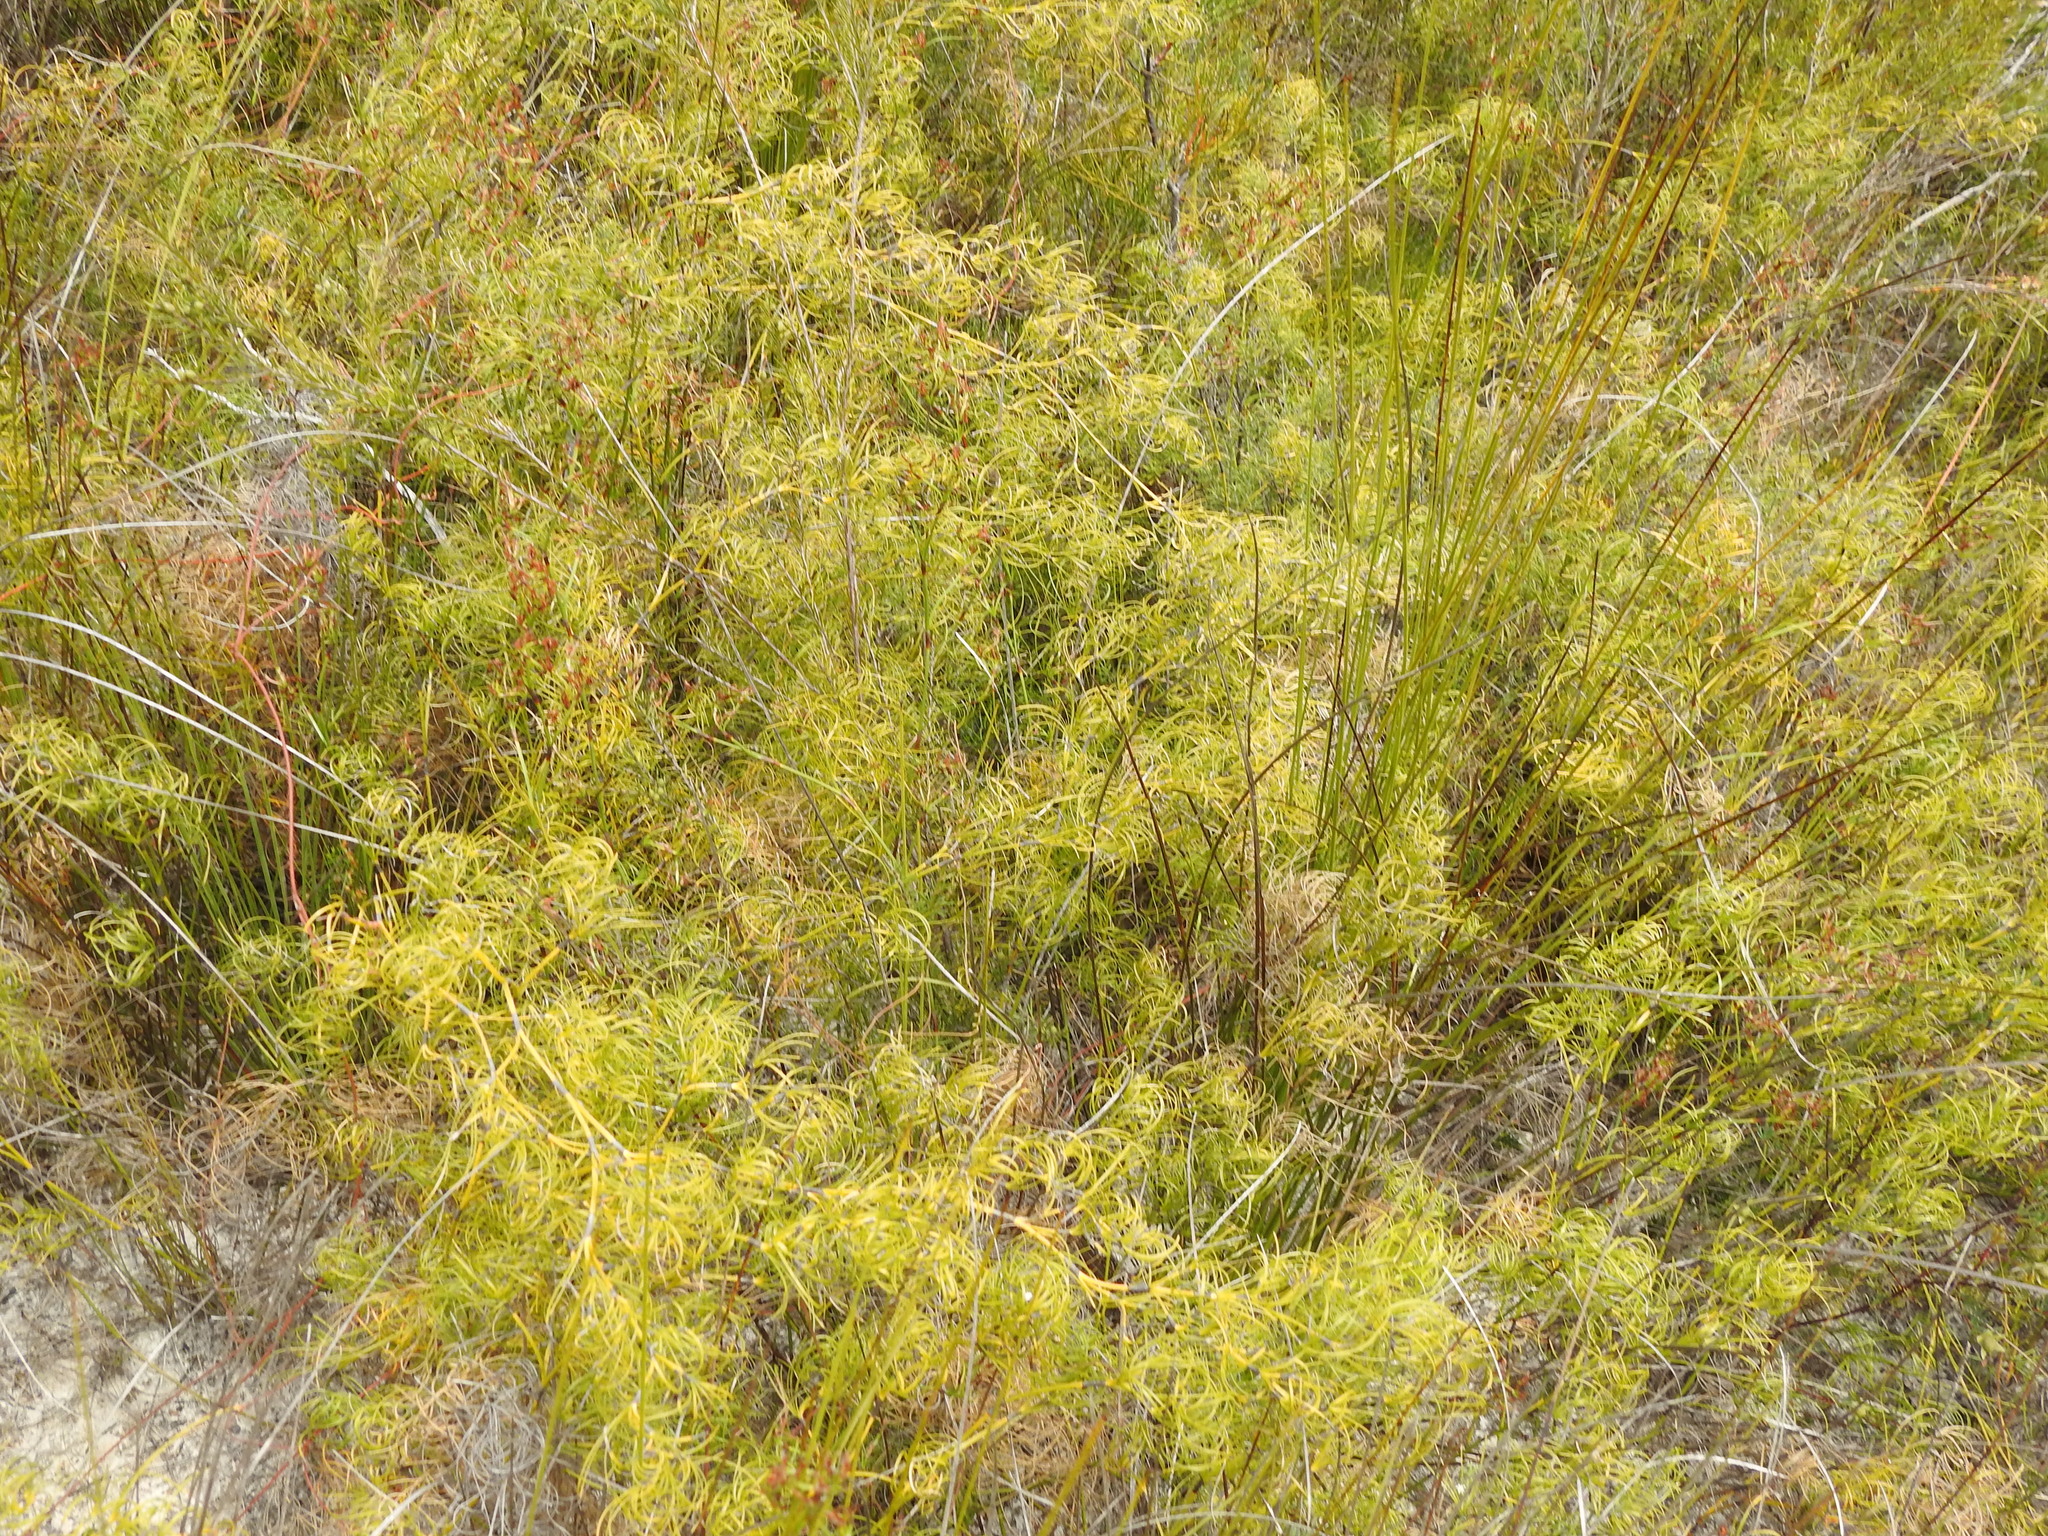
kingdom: Plantae
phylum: Tracheophyta
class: Liliopsida
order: Poales
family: Cyperaceae
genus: Caustis
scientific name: Caustis recurvata
